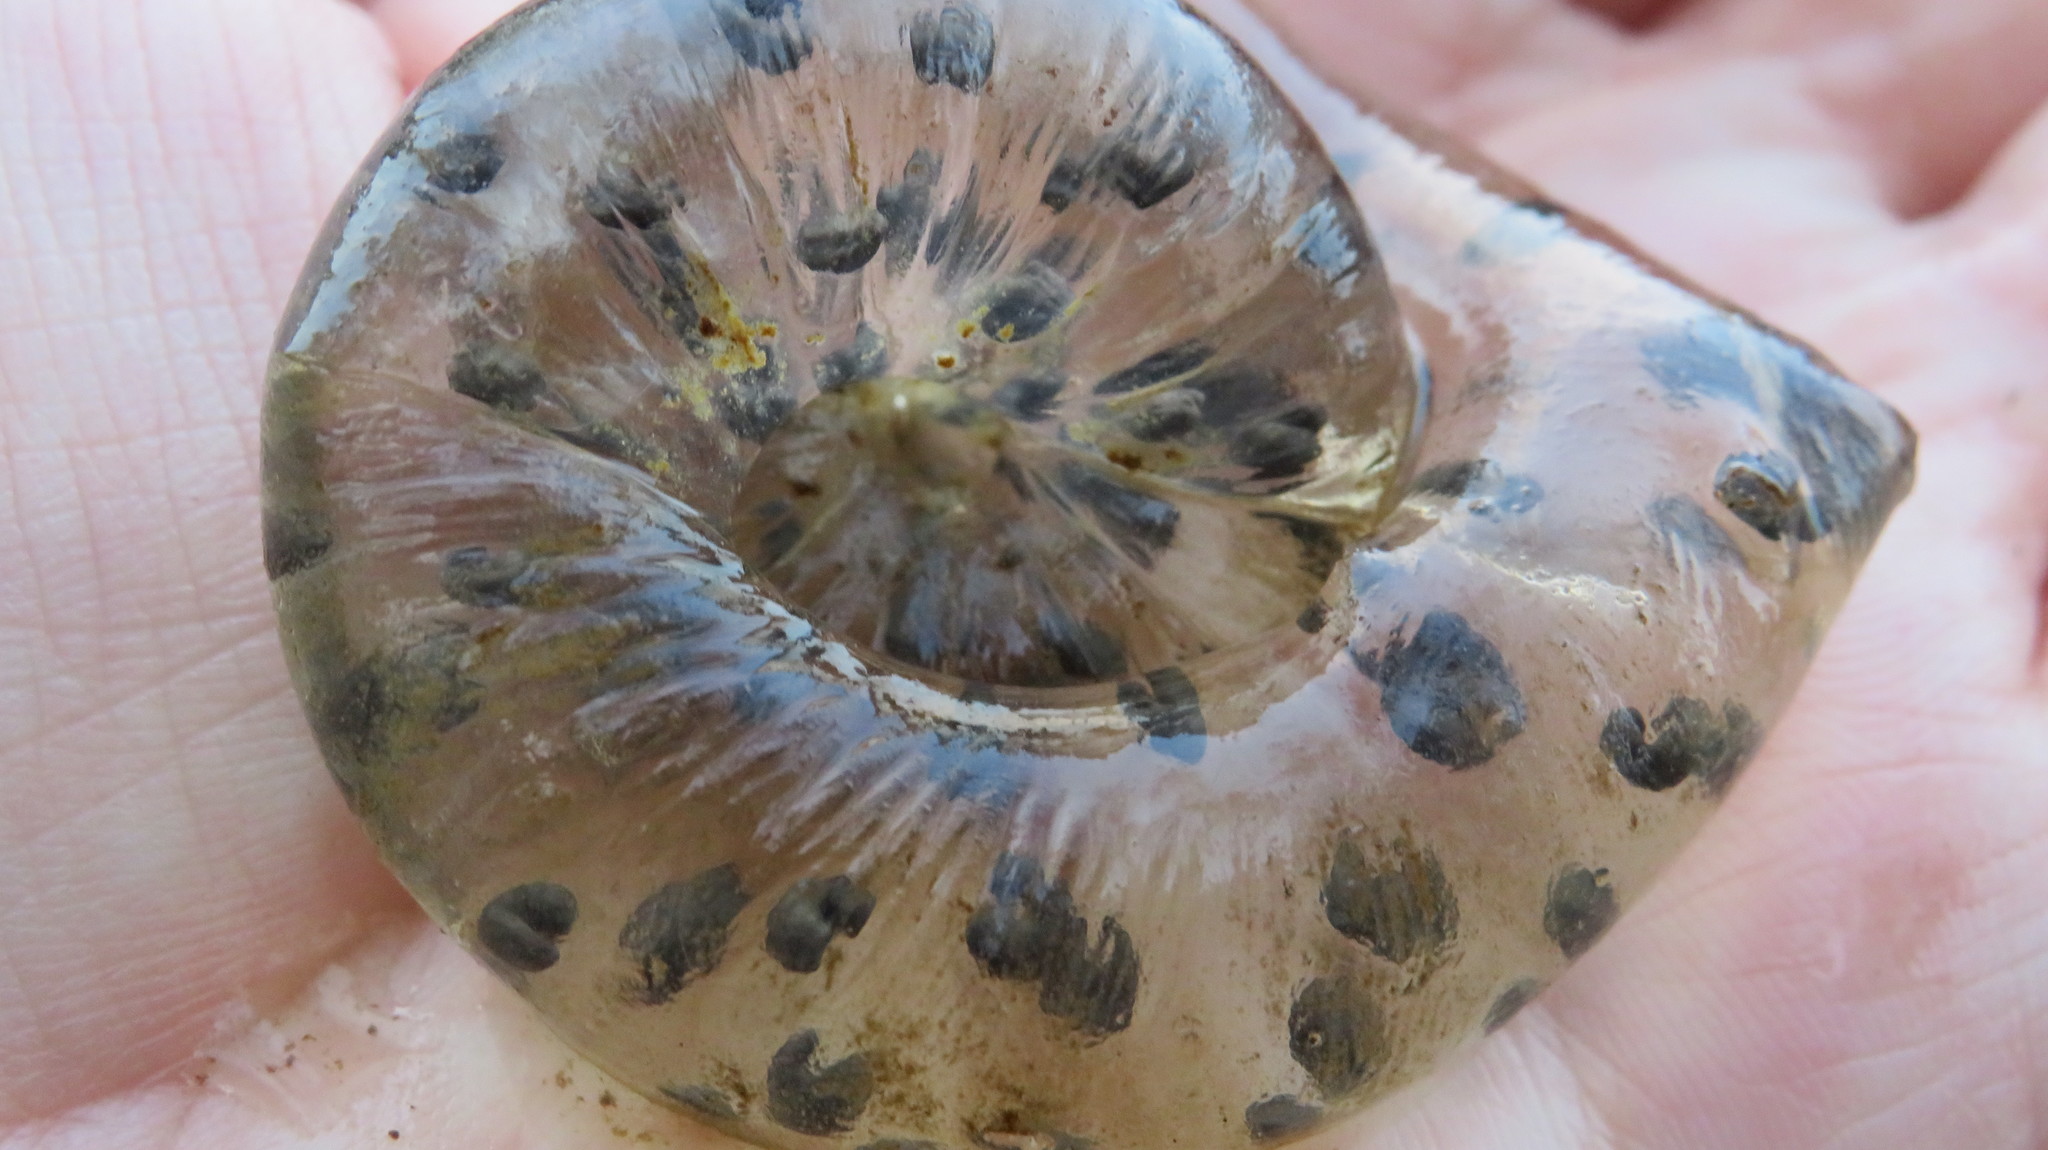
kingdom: Animalia
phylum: Chordata
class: Amphibia
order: Caudata
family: Hynobiidae
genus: Salamandrella
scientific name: Salamandrella keyserlingii
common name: Dybowski's salamander
